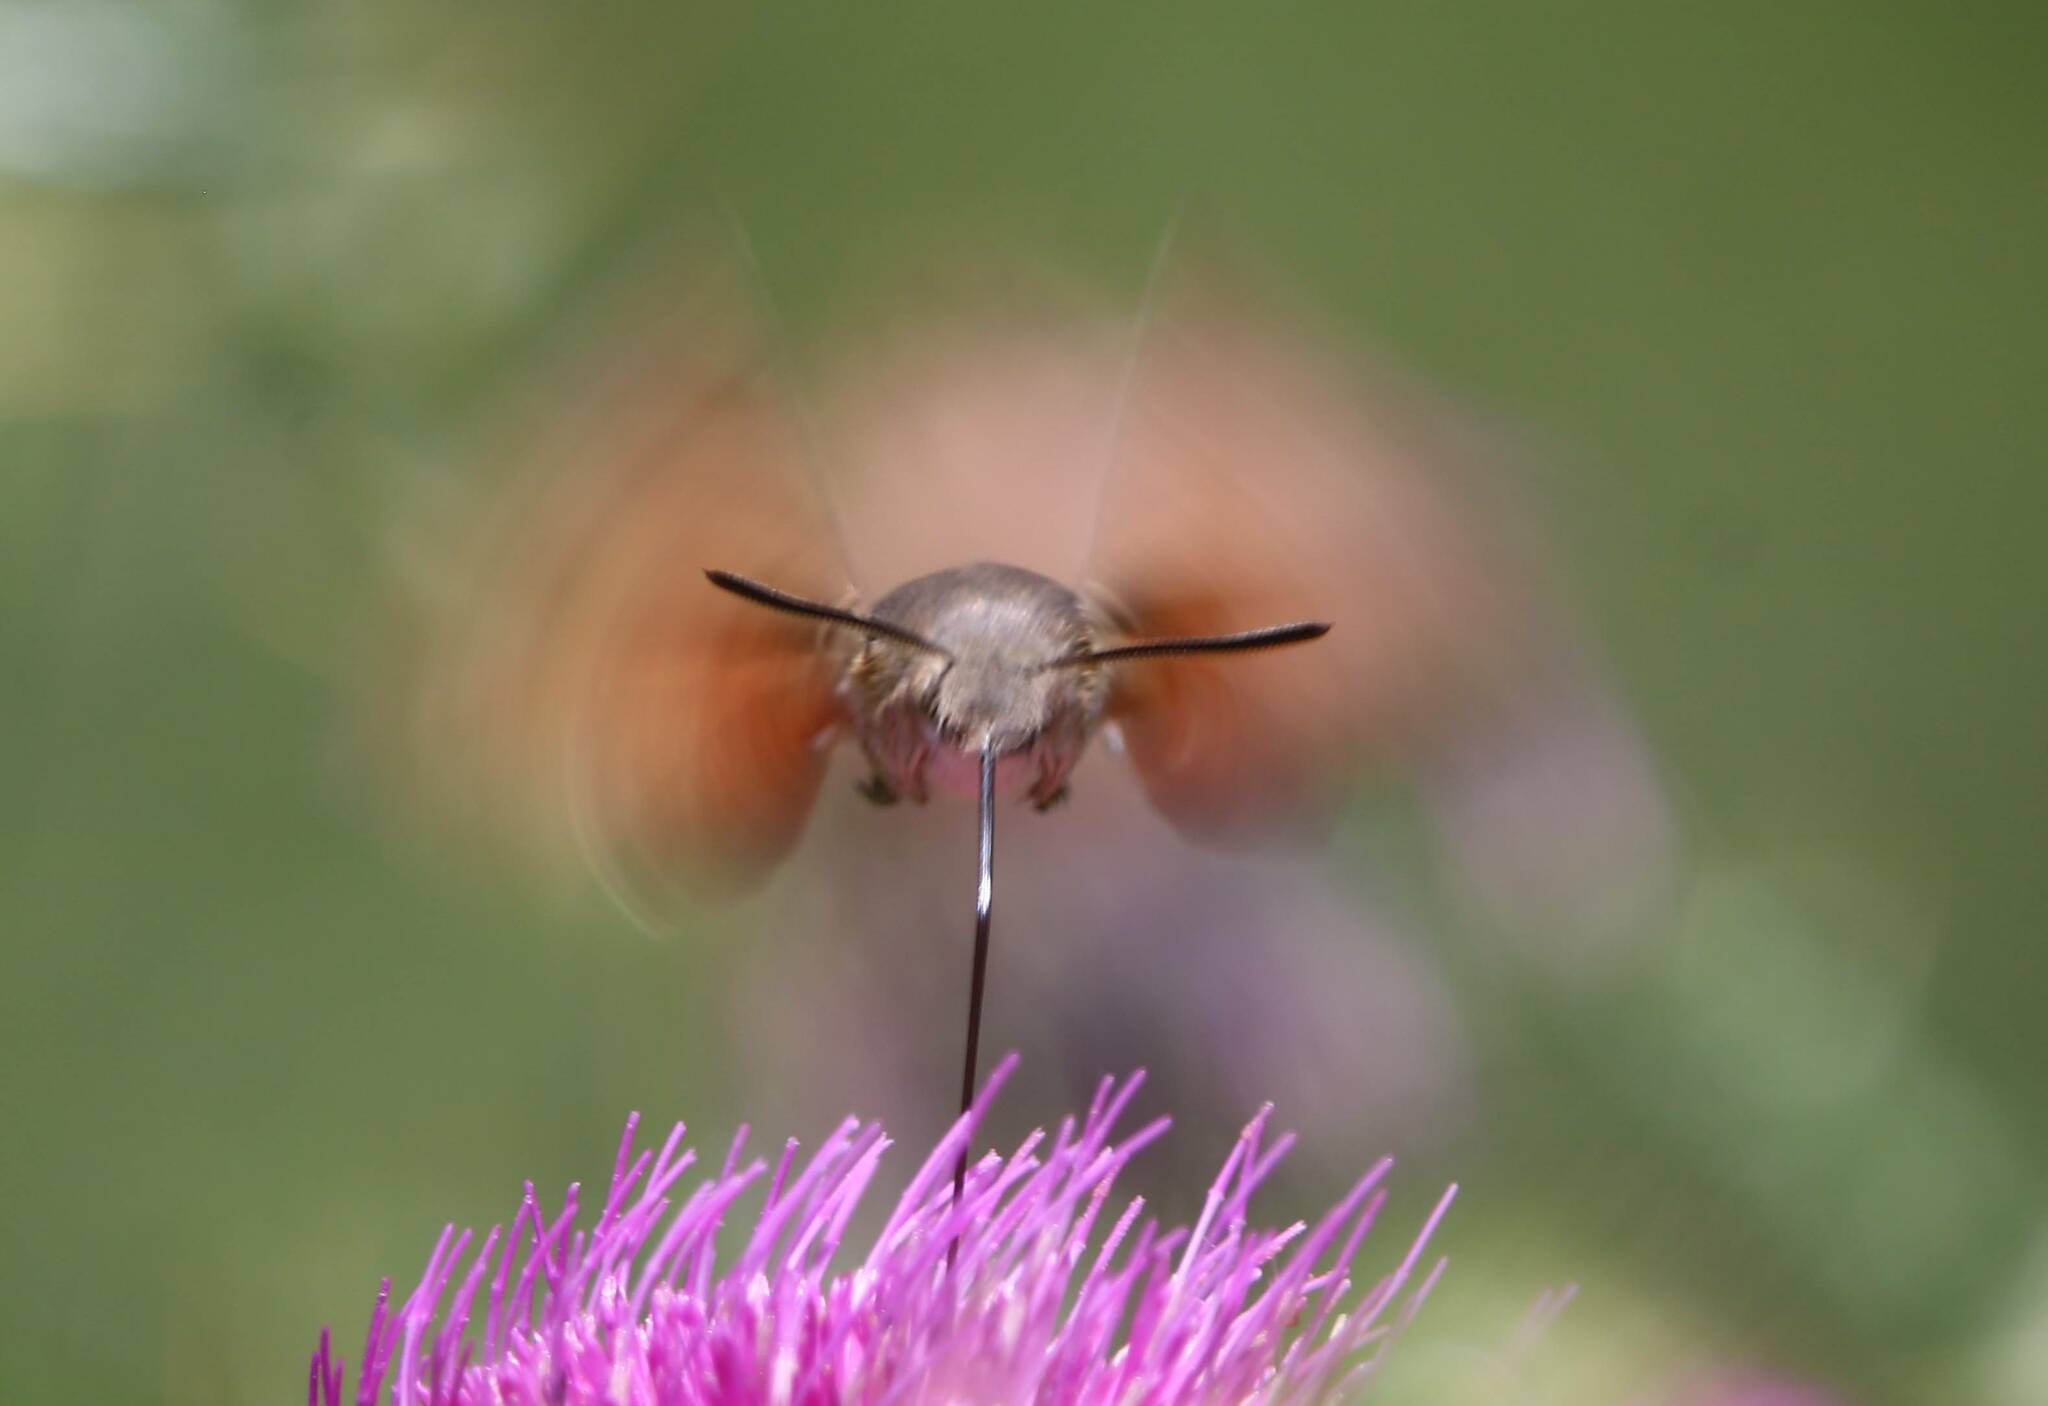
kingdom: Animalia
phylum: Arthropoda
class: Insecta
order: Lepidoptera
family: Sphingidae
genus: Macroglossum
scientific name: Macroglossum stellatarum
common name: Humming-bird hawk-moth
